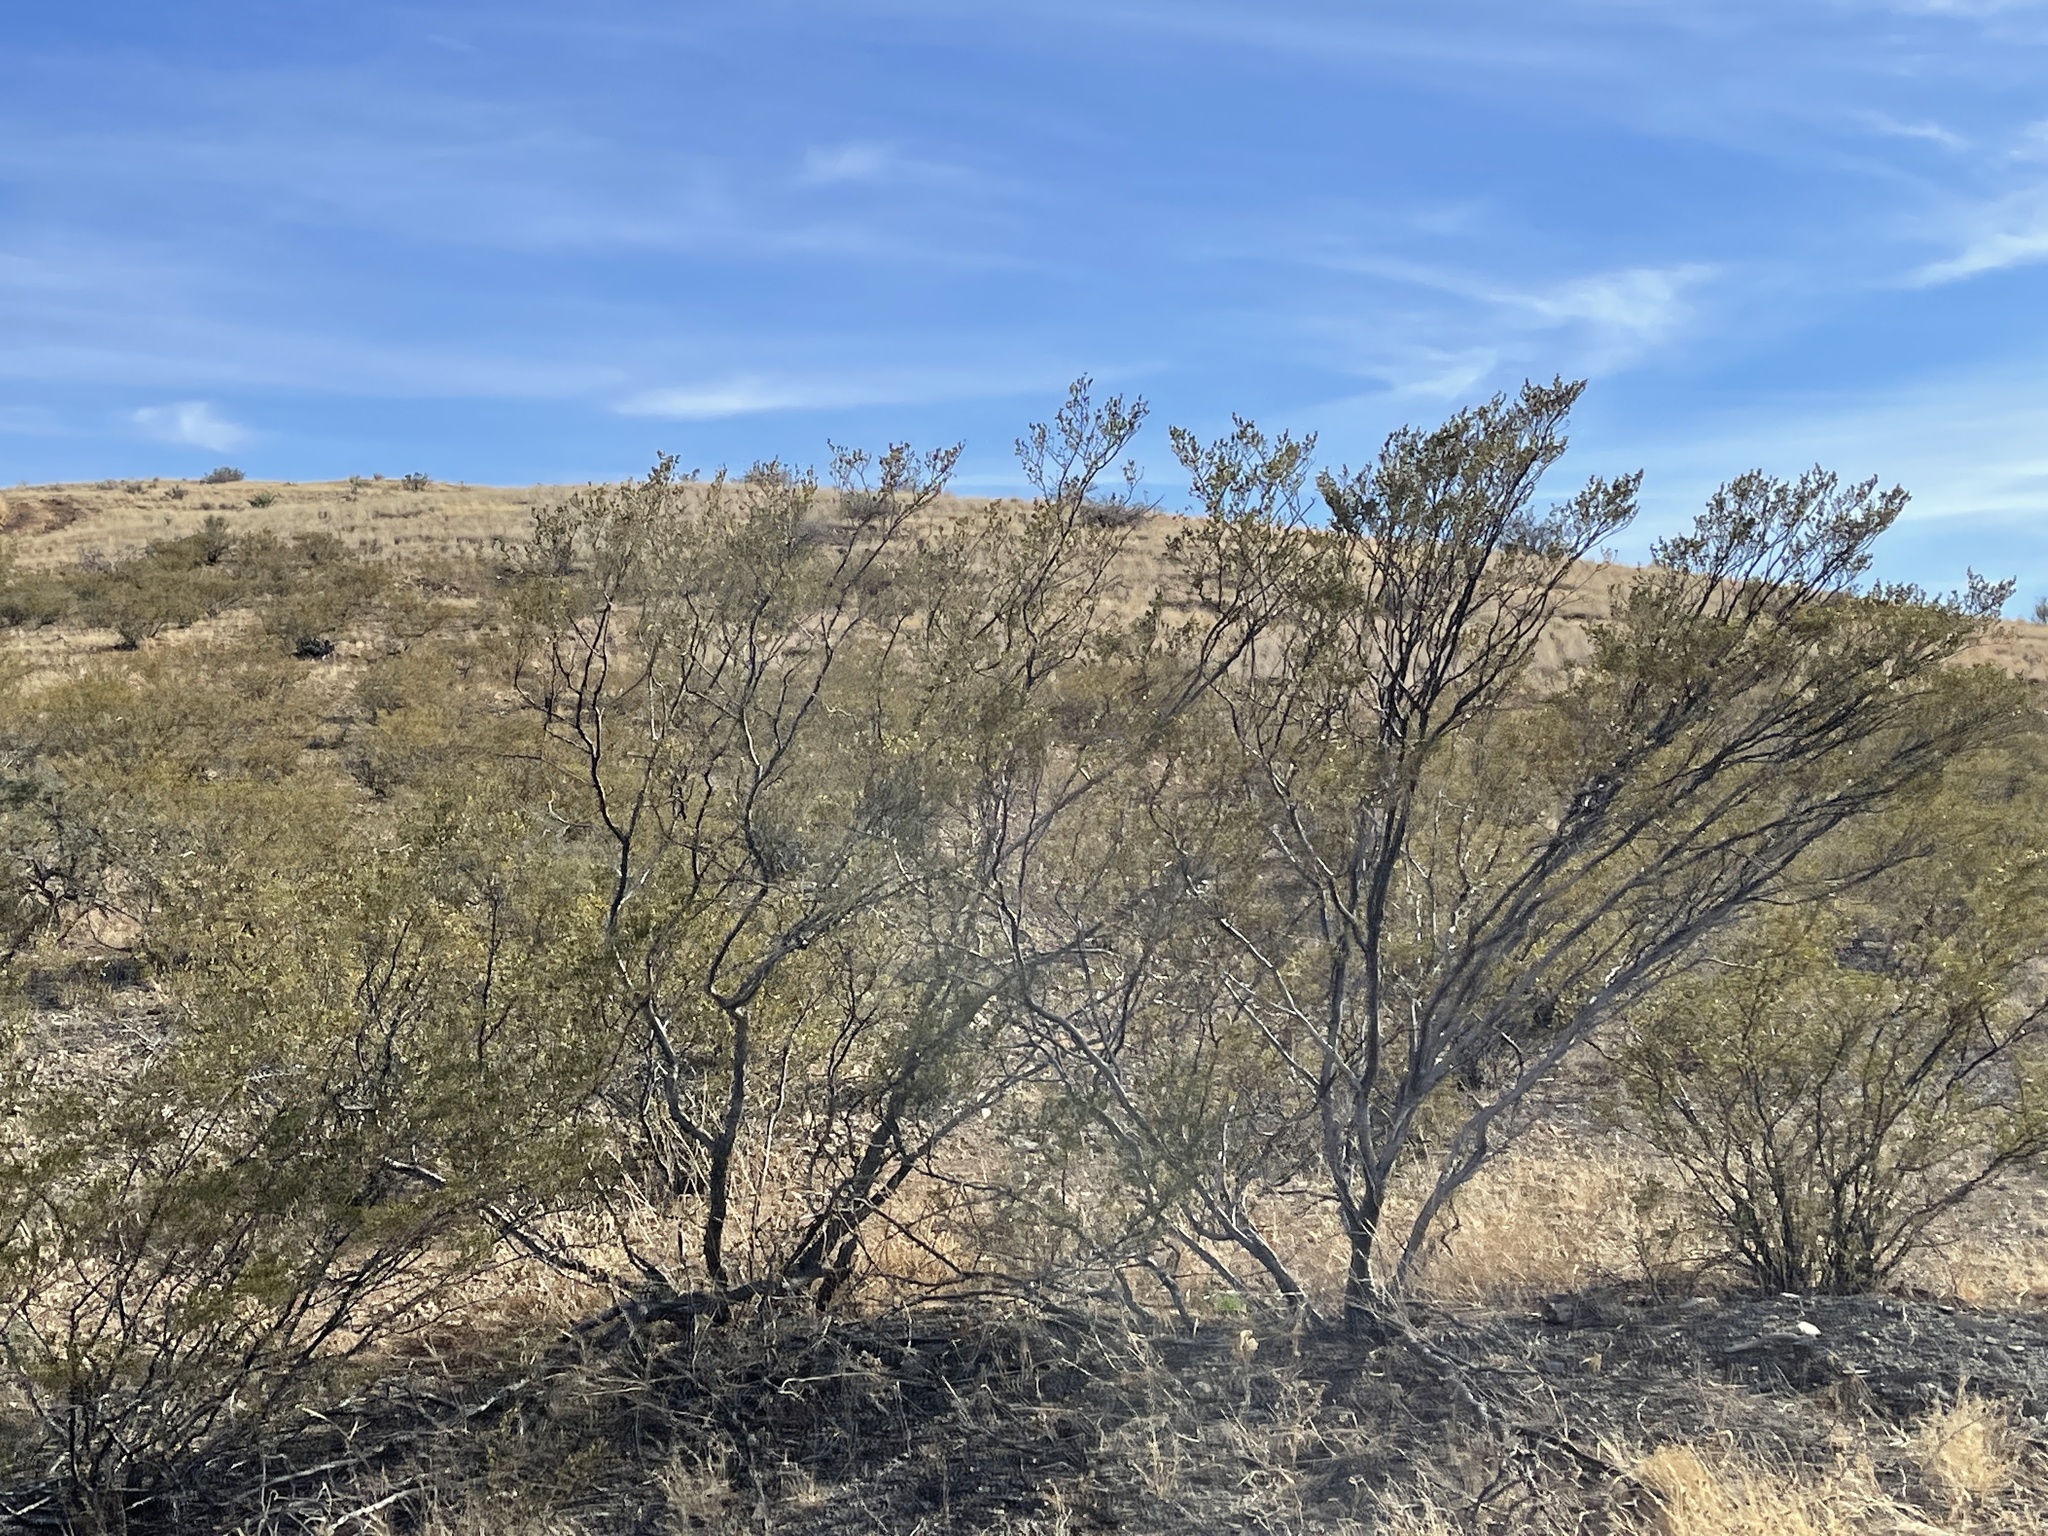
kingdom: Plantae
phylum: Tracheophyta
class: Magnoliopsida
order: Zygophyllales
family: Zygophyllaceae
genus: Larrea
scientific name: Larrea tridentata
